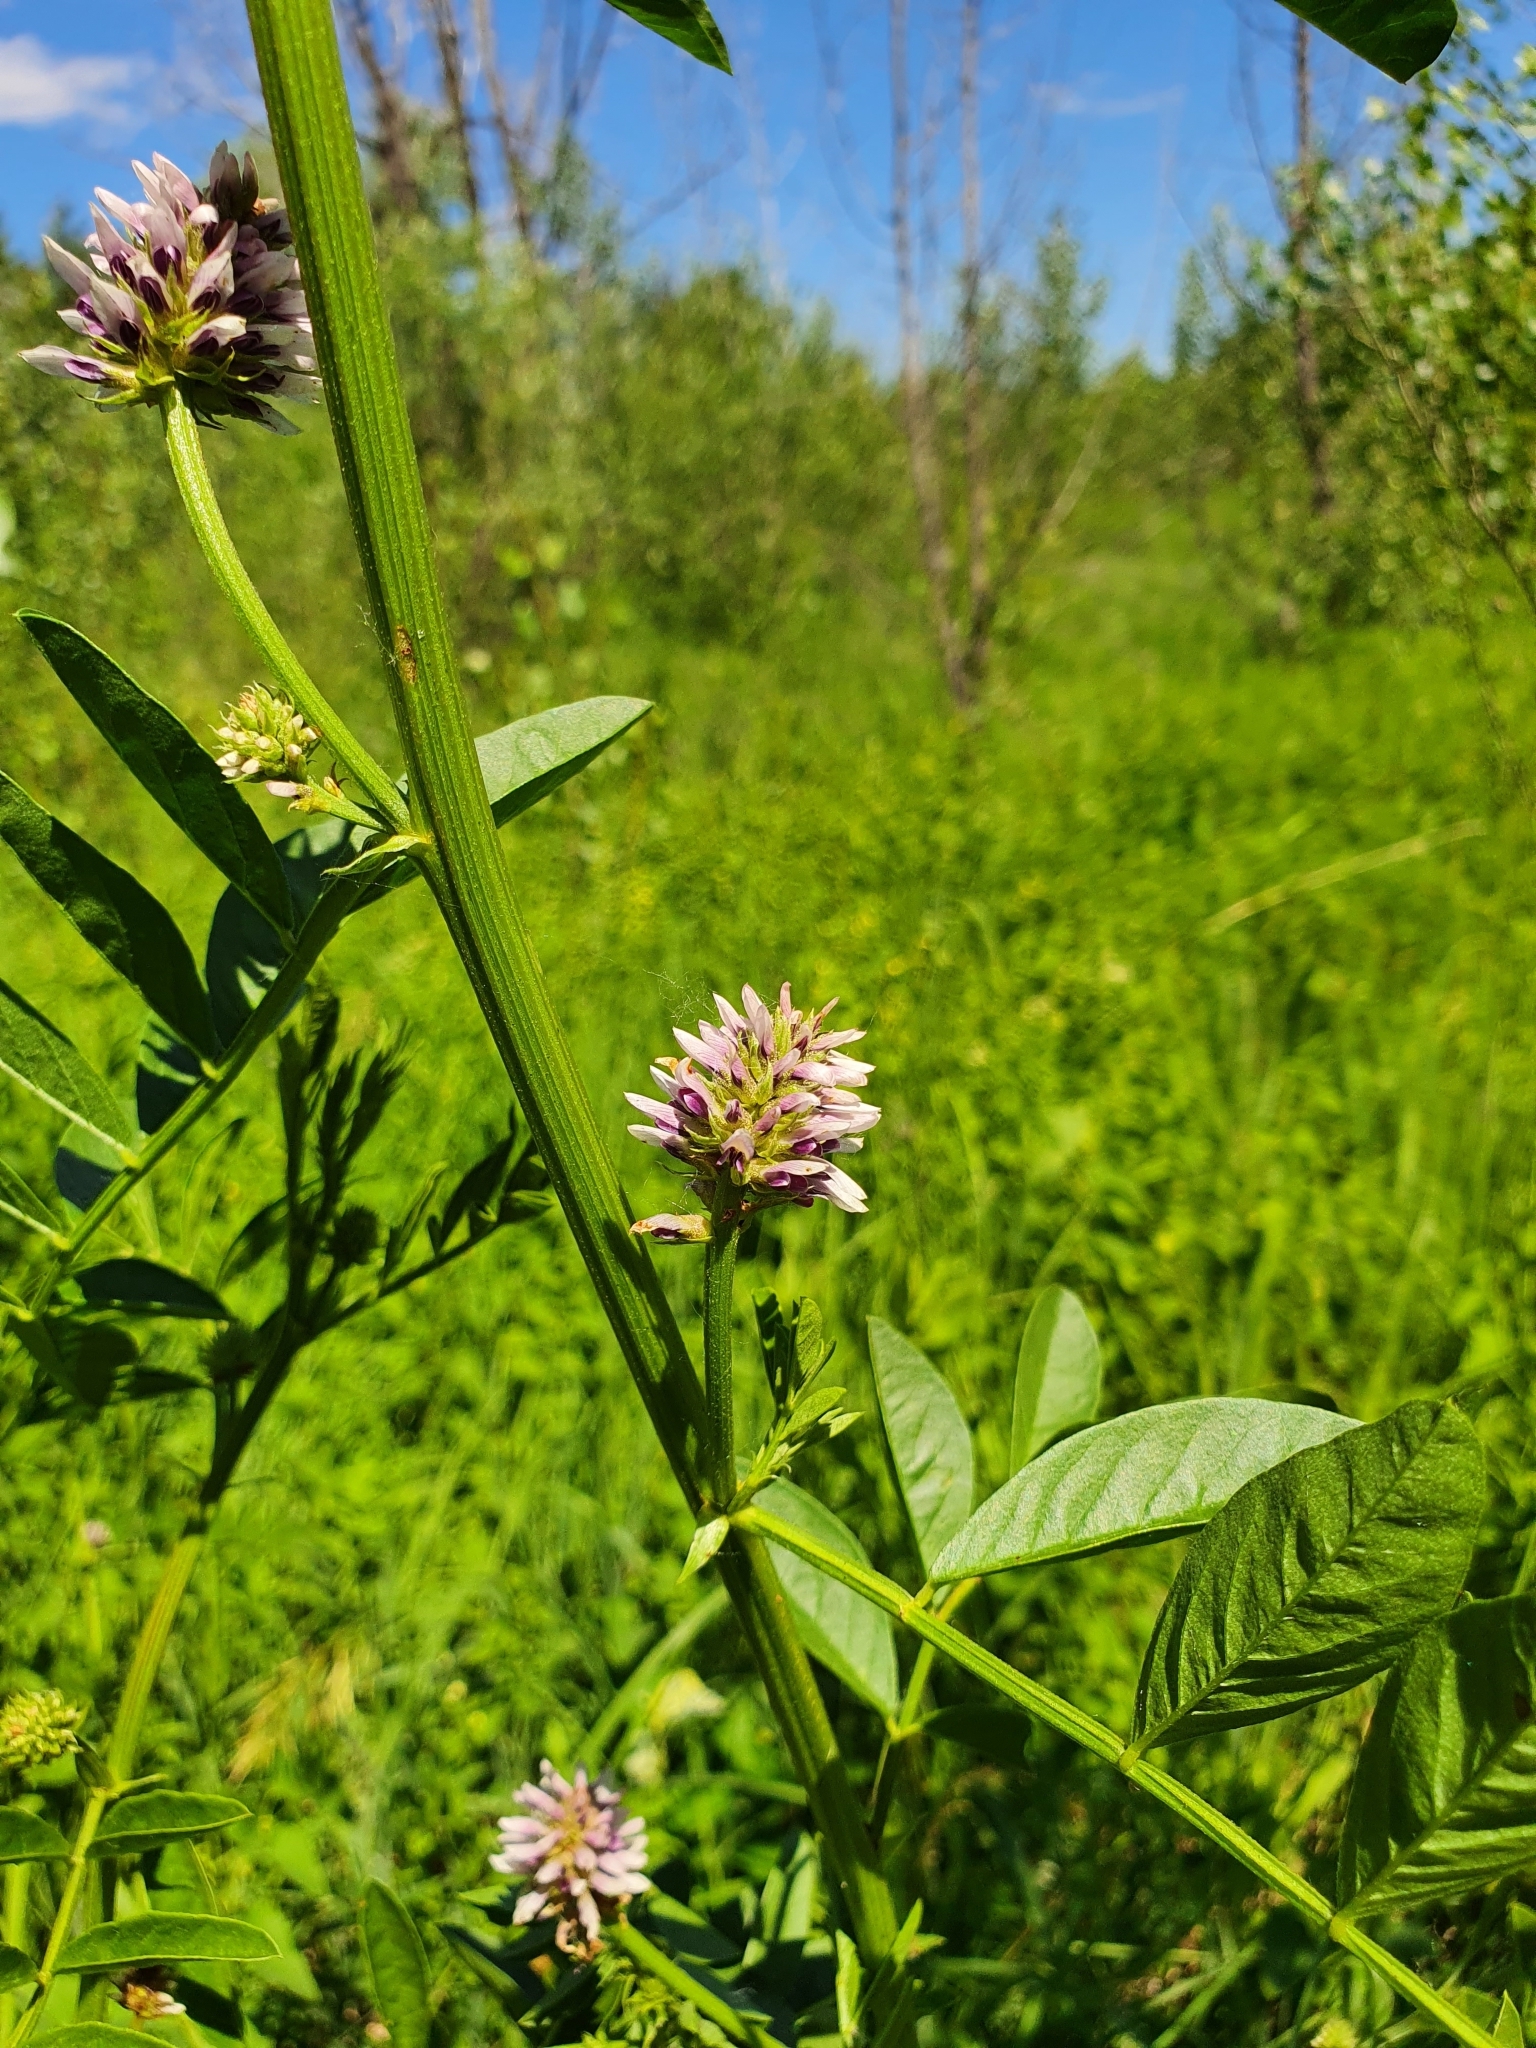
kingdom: Plantae
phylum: Tracheophyta
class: Magnoliopsida
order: Fabales
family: Fabaceae
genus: Glycyrrhiza
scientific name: Glycyrrhiza echinata
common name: German liquorice
